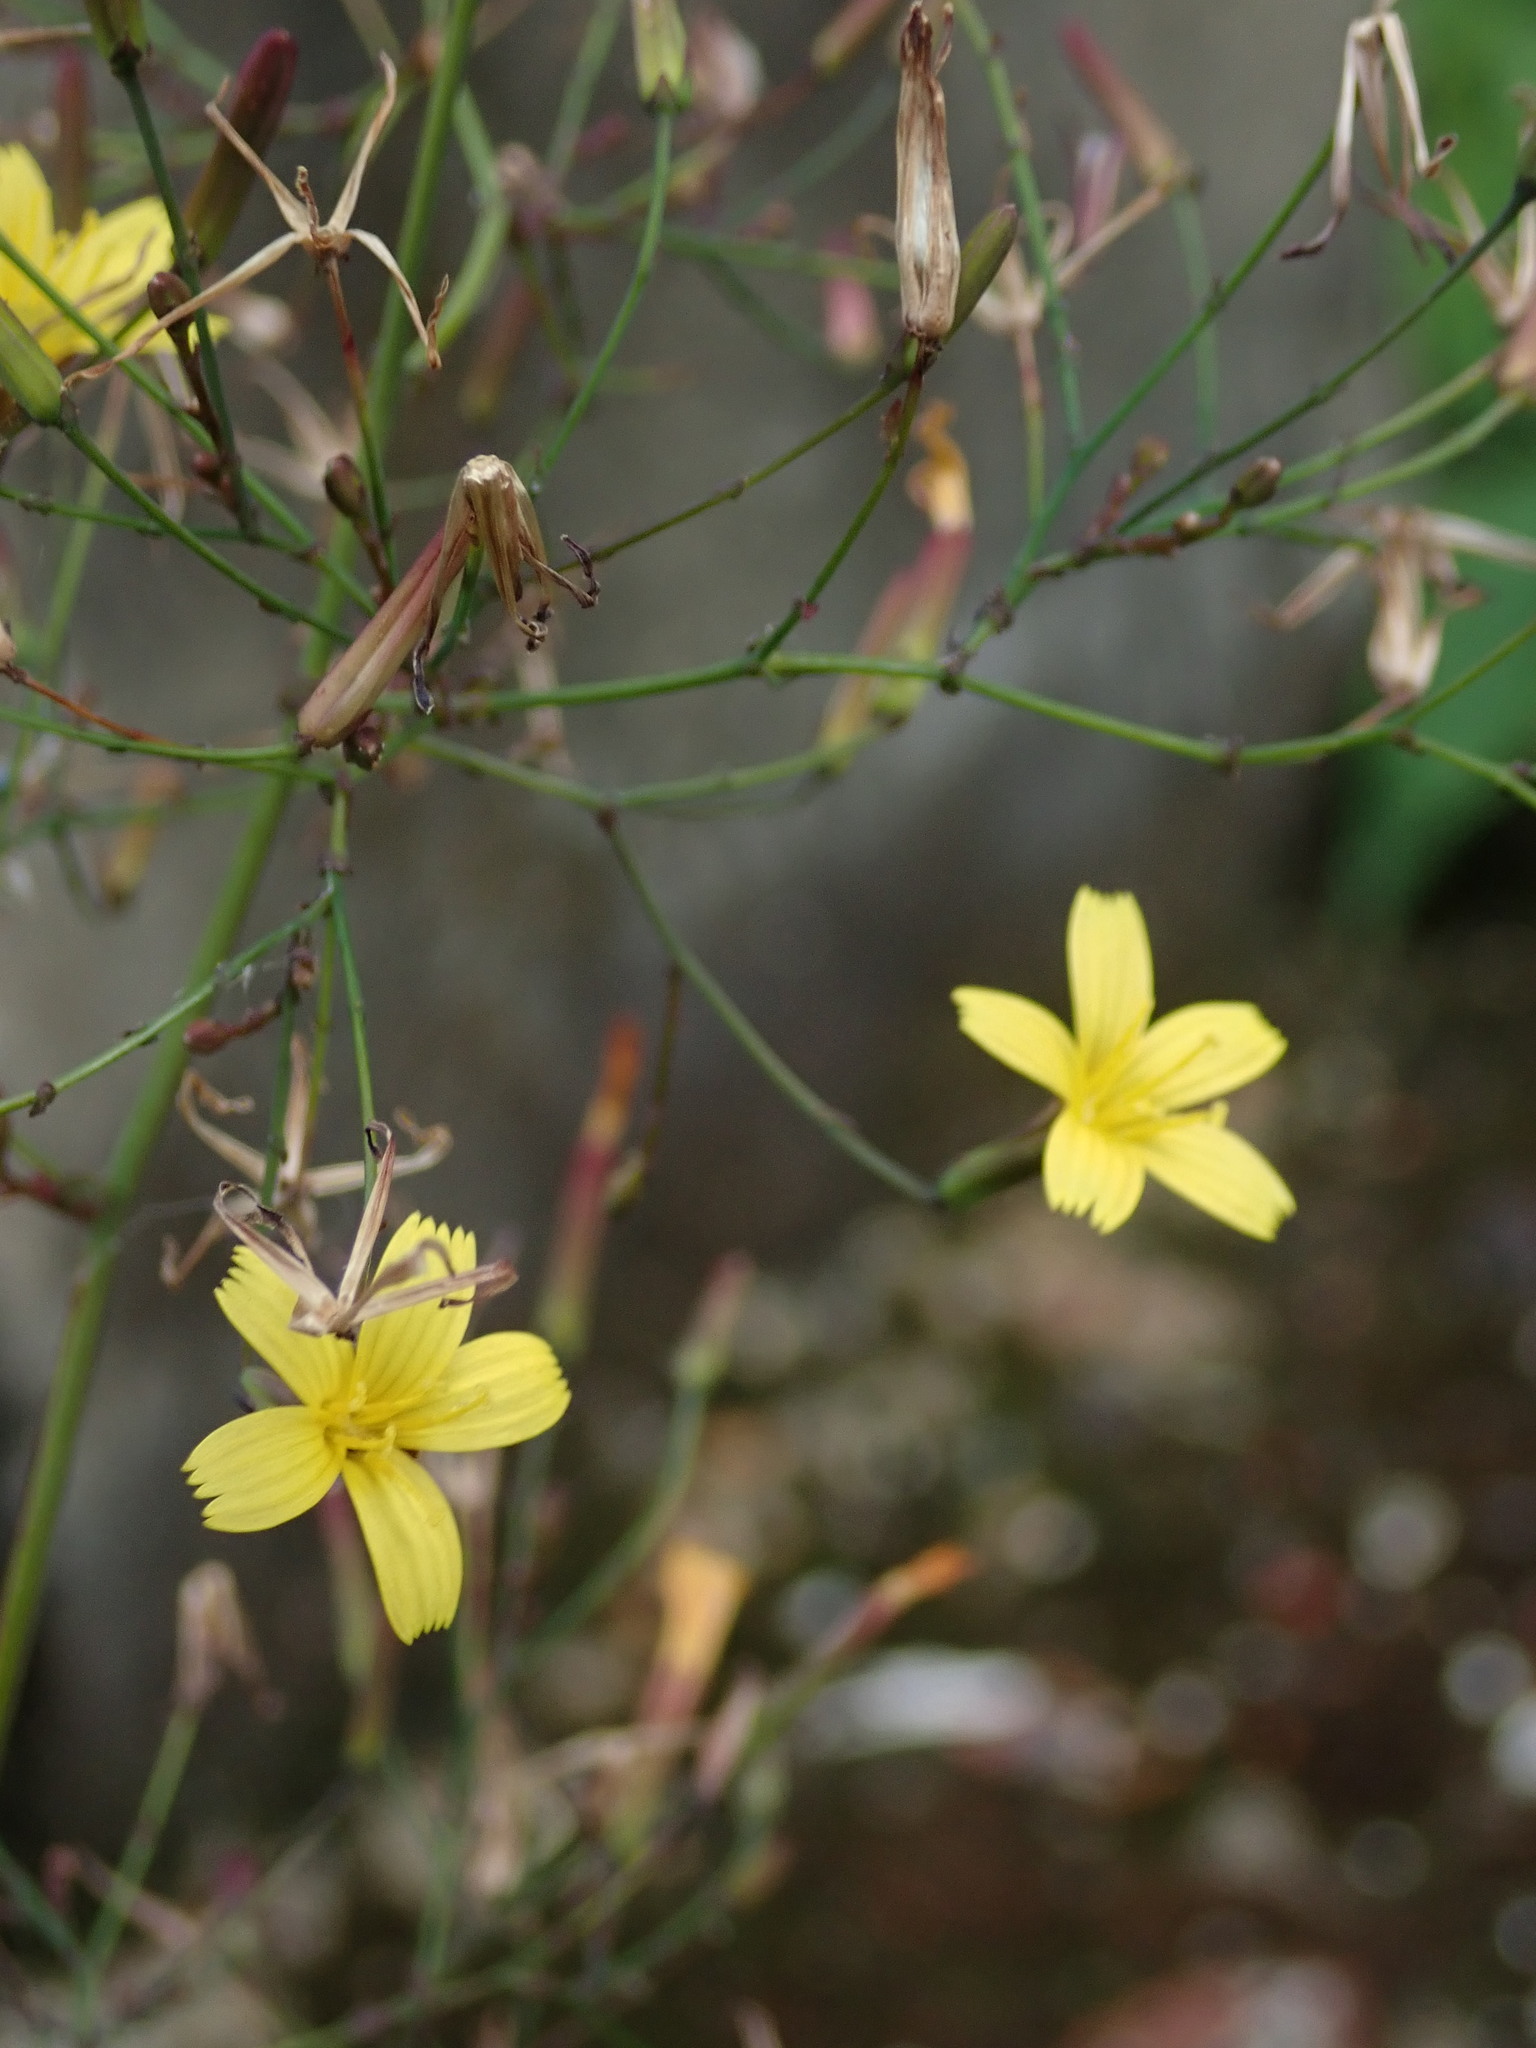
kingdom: Plantae
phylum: Tracheophyta
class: Magnoliopsida
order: Asterales
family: Asteraceae
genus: Mycelis
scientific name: Mycelis muralis
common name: Wall lettuce
